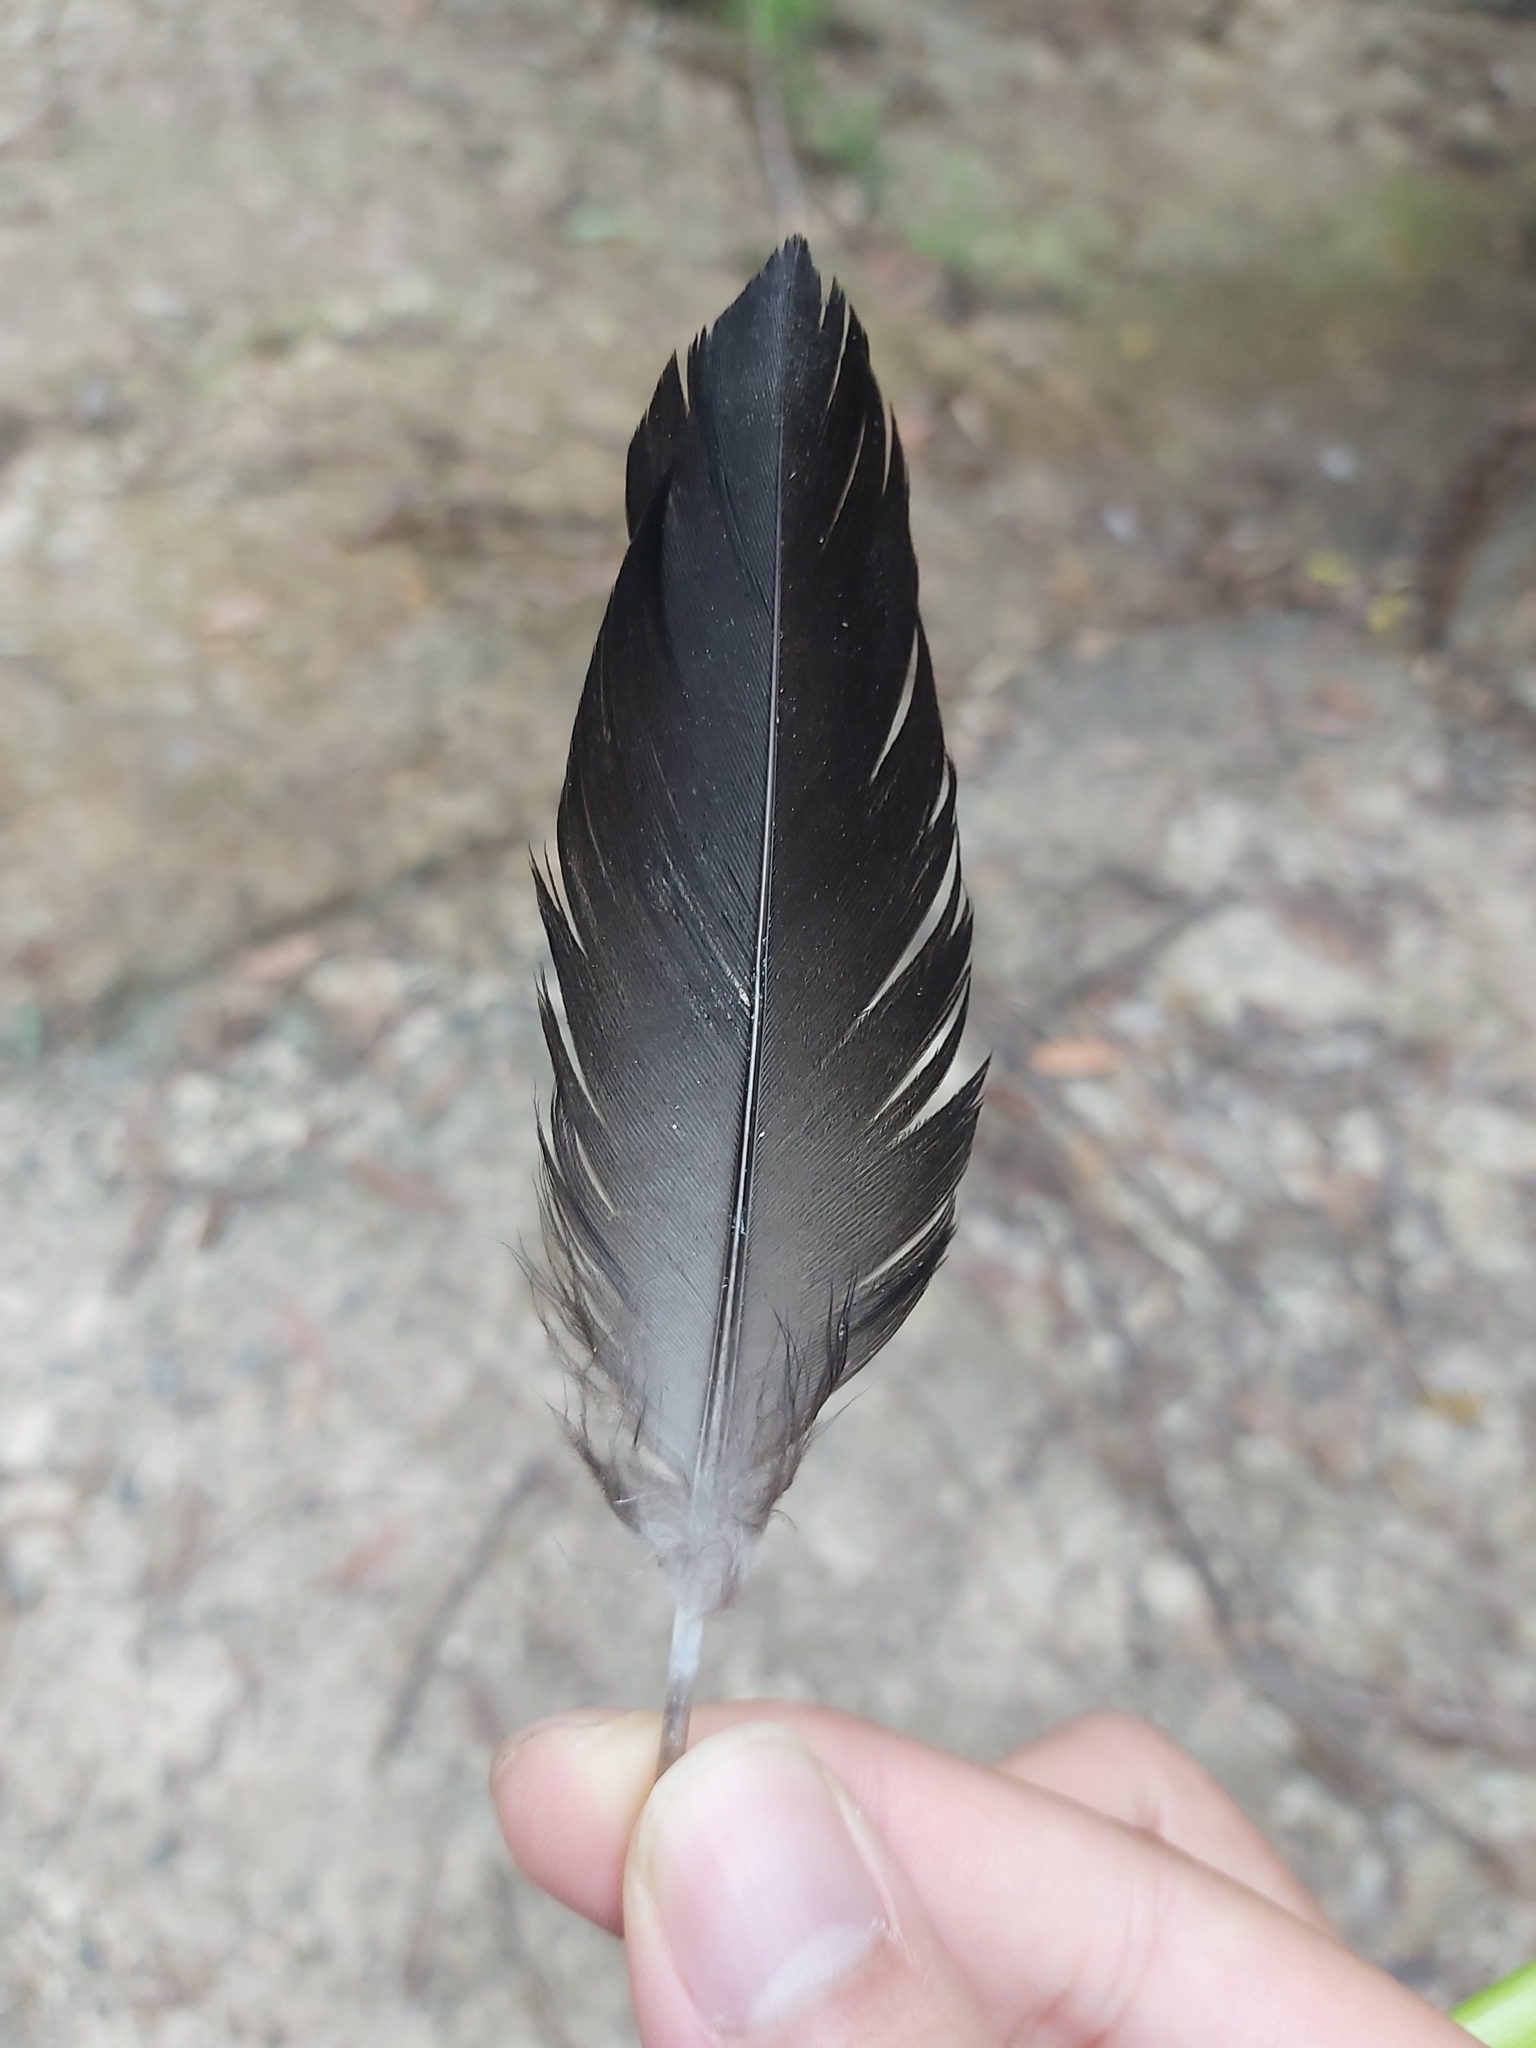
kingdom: Animalia
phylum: Chordata
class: Aves
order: Galliformes
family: Megapodiidae
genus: Alectura
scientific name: Alectura lathami
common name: Australian brushturkey
